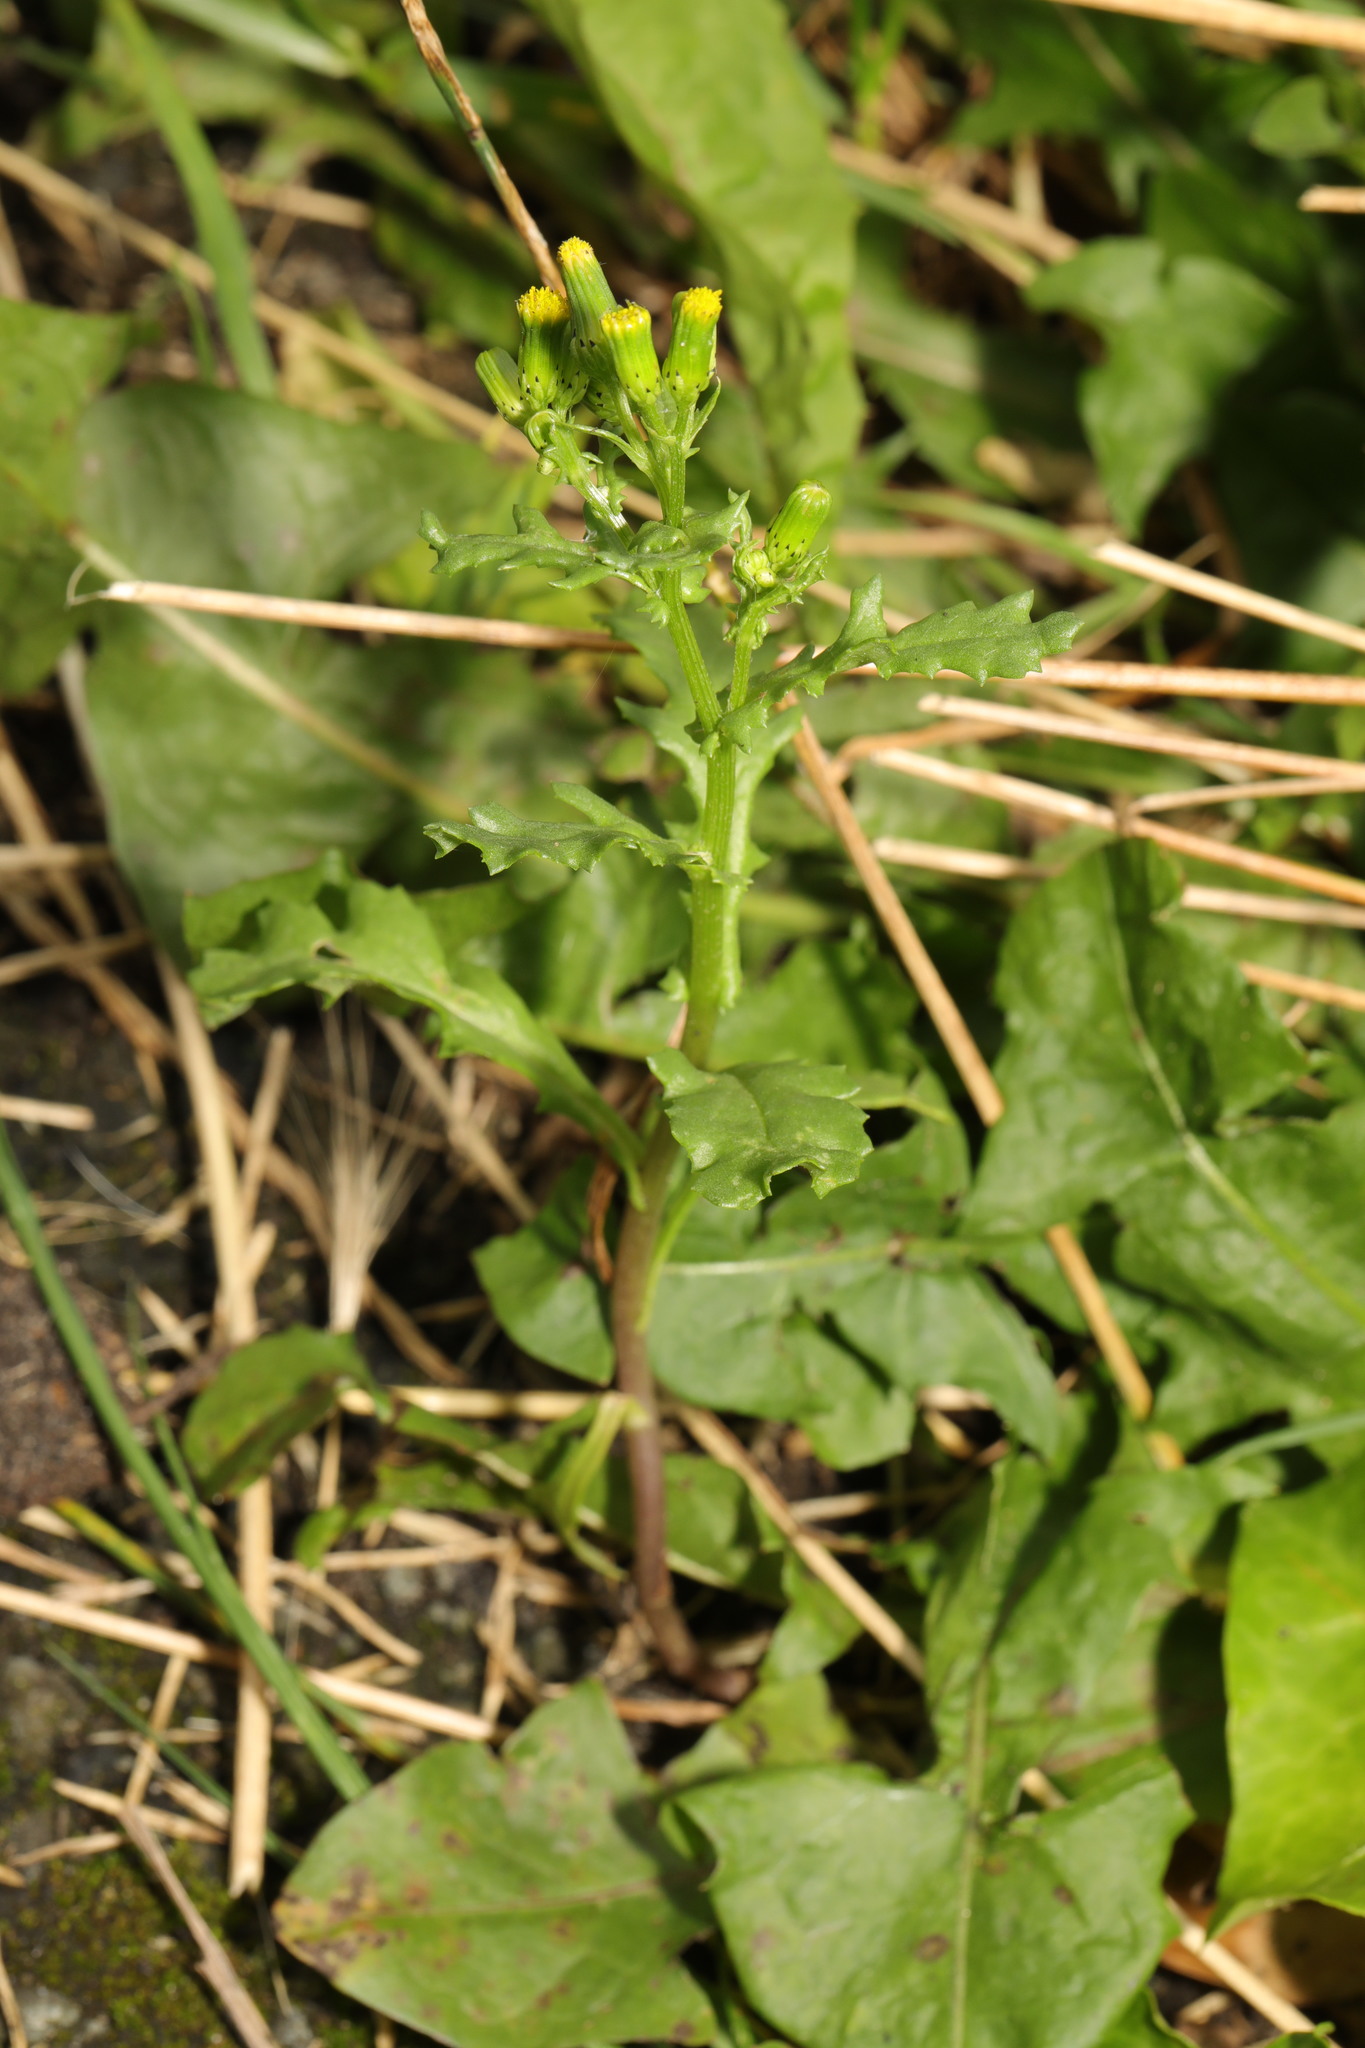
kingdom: Plantae
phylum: Tracheophyta
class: Magnoliopsida
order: Asterales
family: Asteraceae
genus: Senecio
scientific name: Senecio vulgaris
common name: Old-man-in-the-spring
